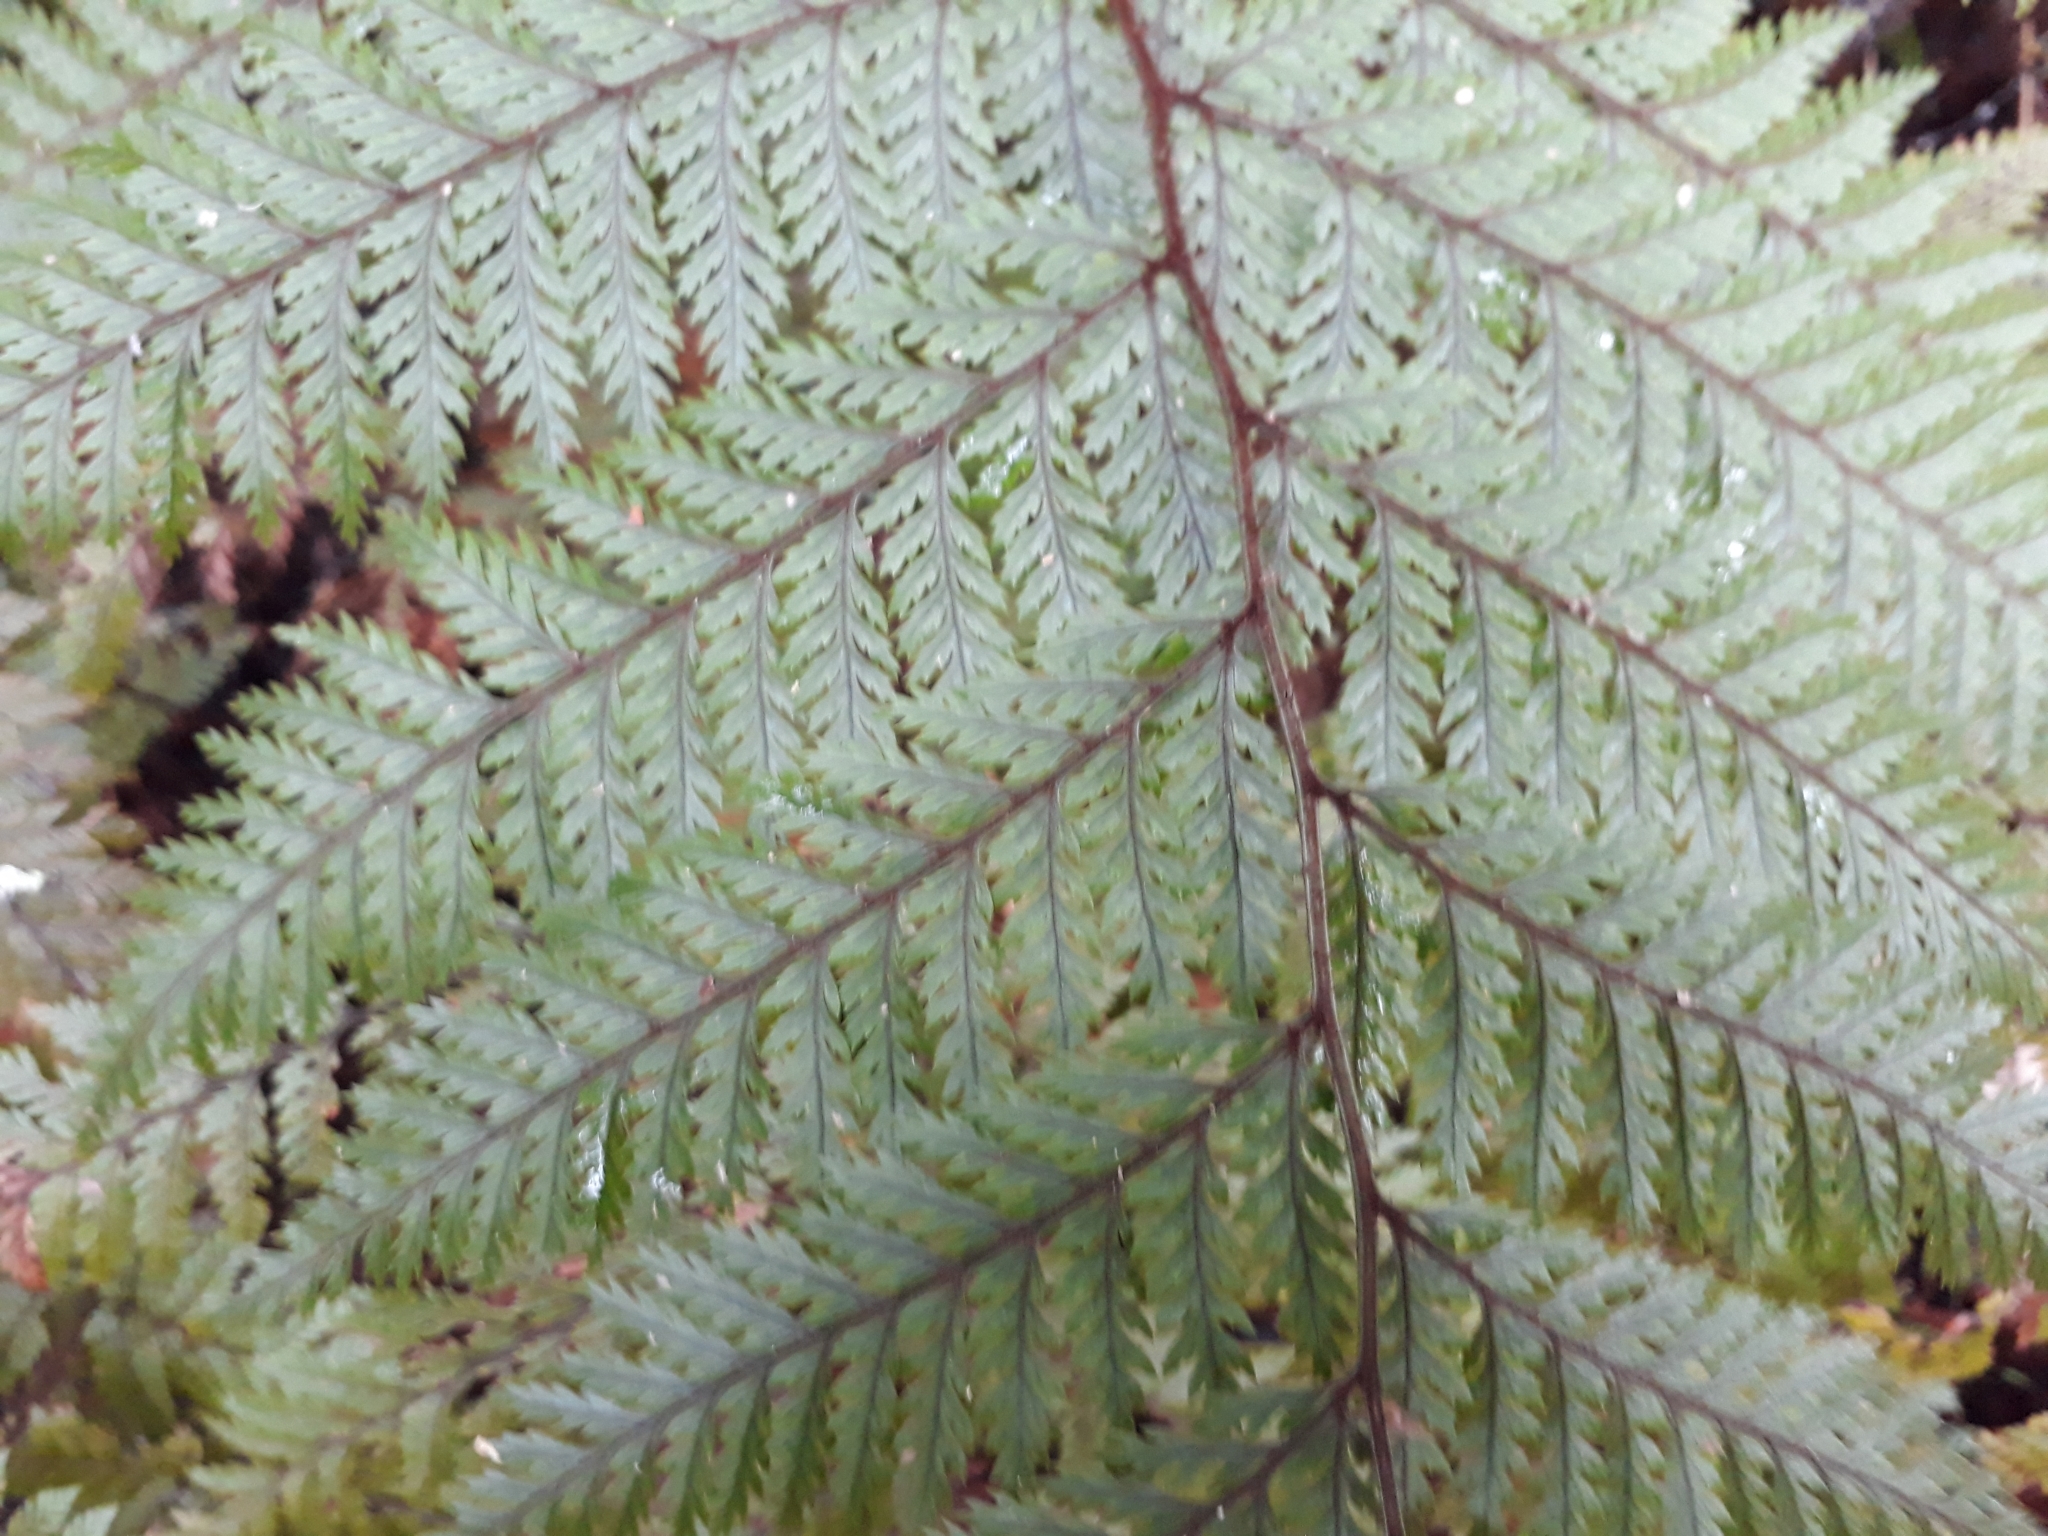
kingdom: Plantae
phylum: Tracheophyta
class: Polypodiopsida
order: Polypodiales
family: Dryopteridaceae
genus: Lastreopsis
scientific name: Lastreopsis hispida
